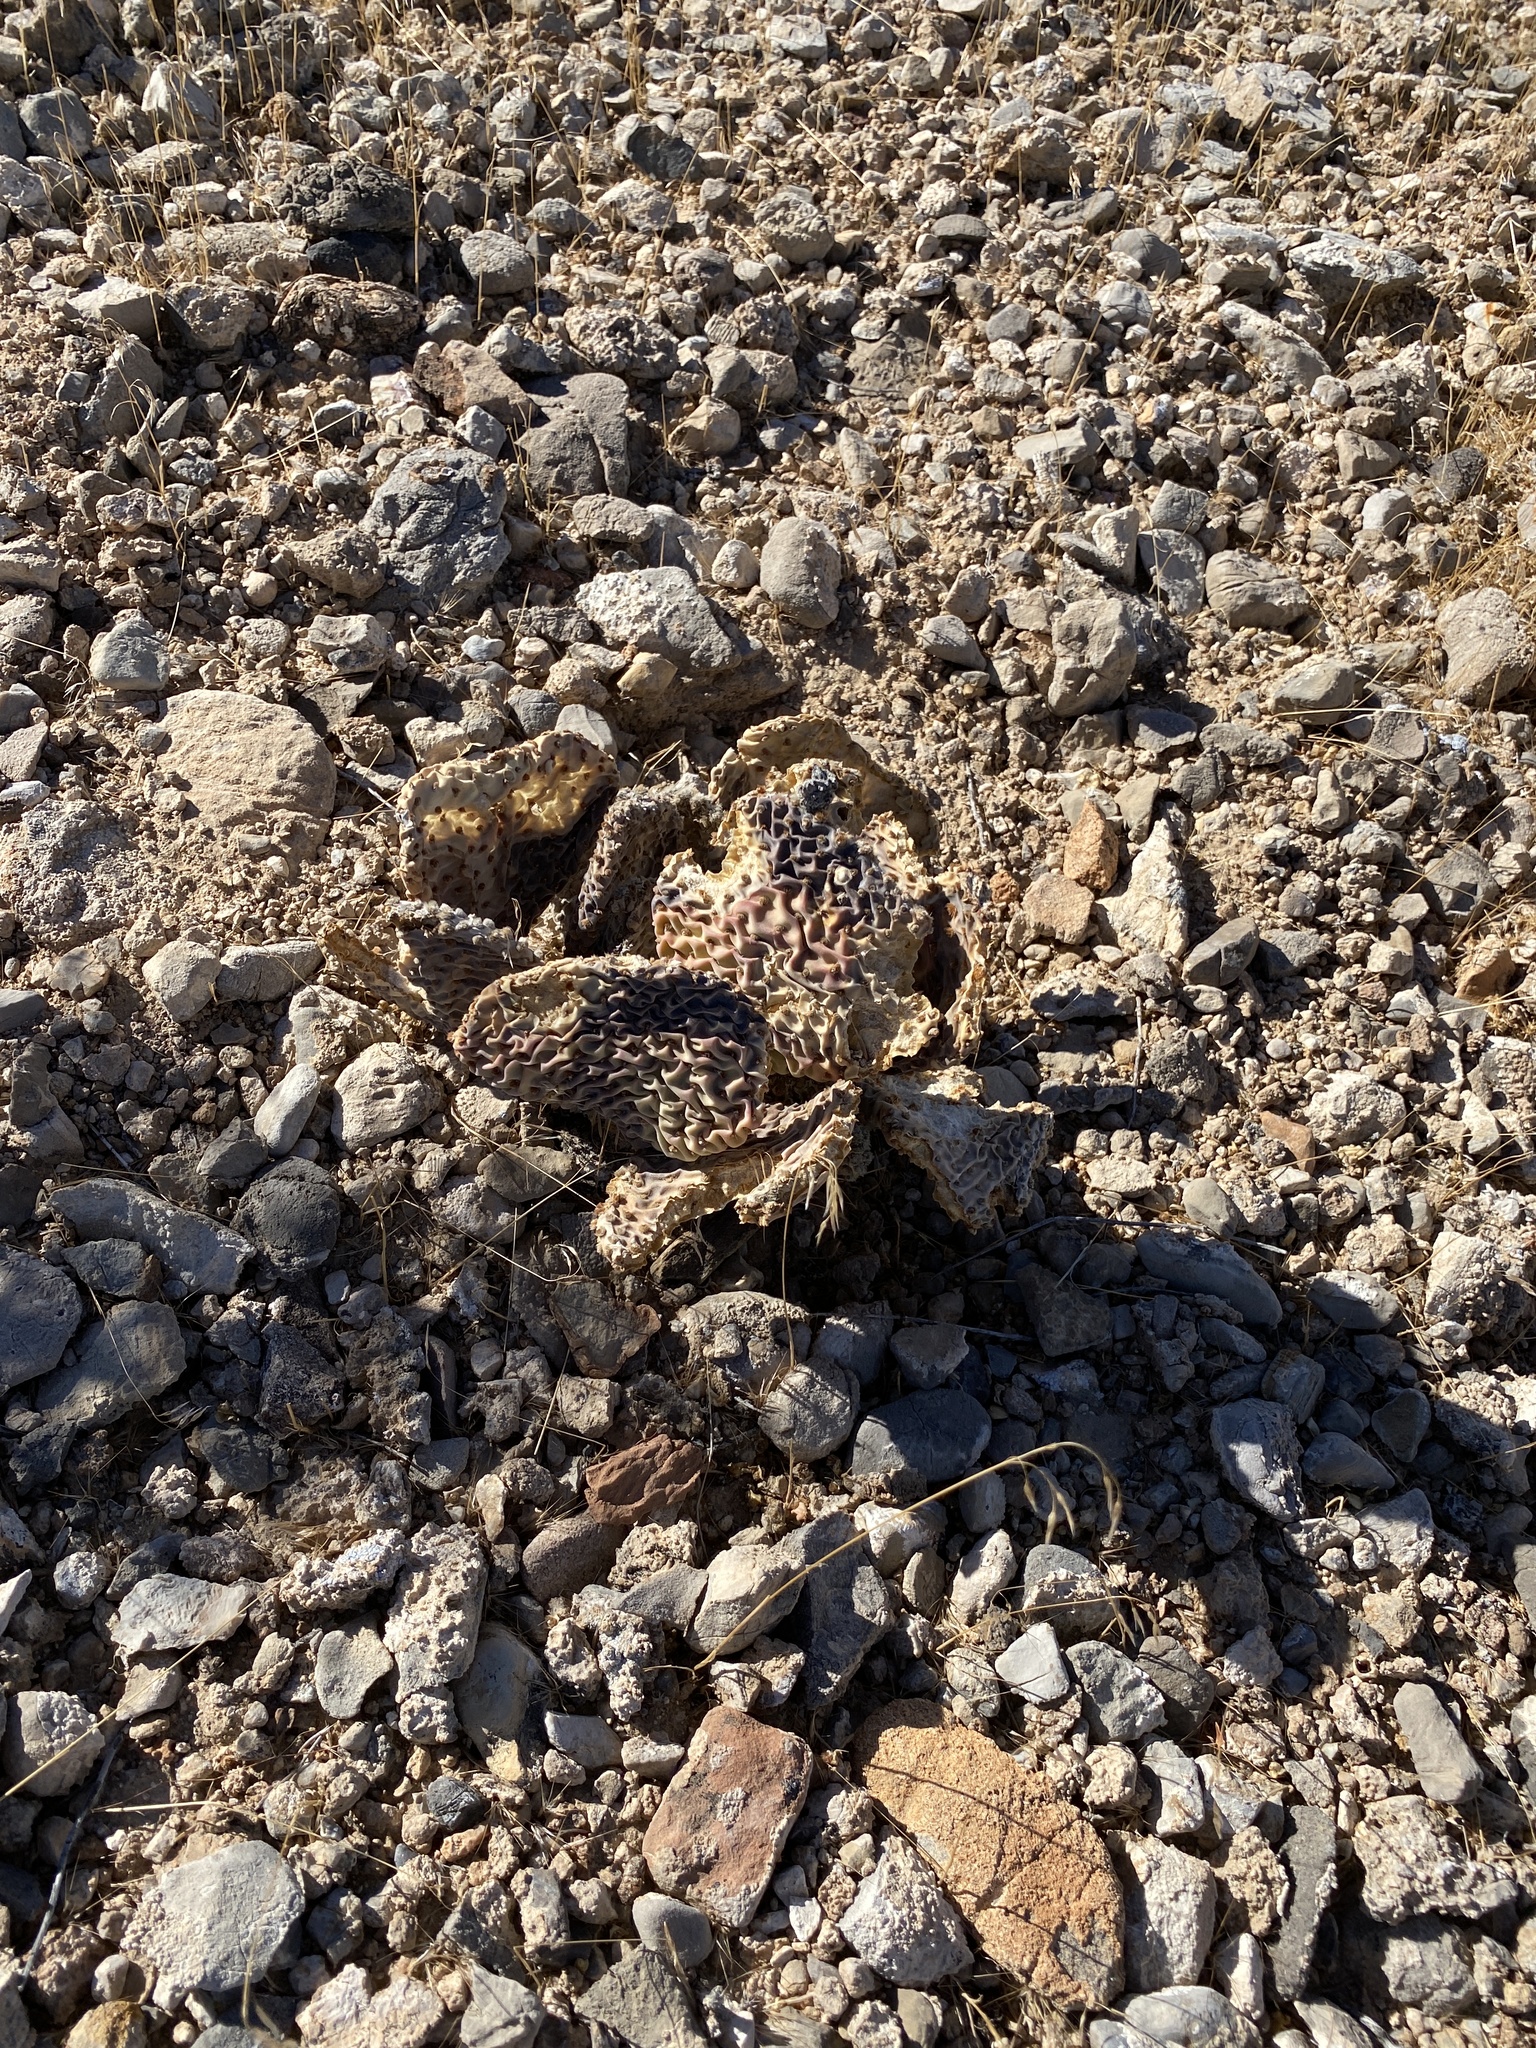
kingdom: Plantae
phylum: Tracheophyta
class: Magnoliopsida
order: Caryophyllales
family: Cactaceae
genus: Opuntia
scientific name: Opuntia basilaris
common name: Beavertail prickly-pear
